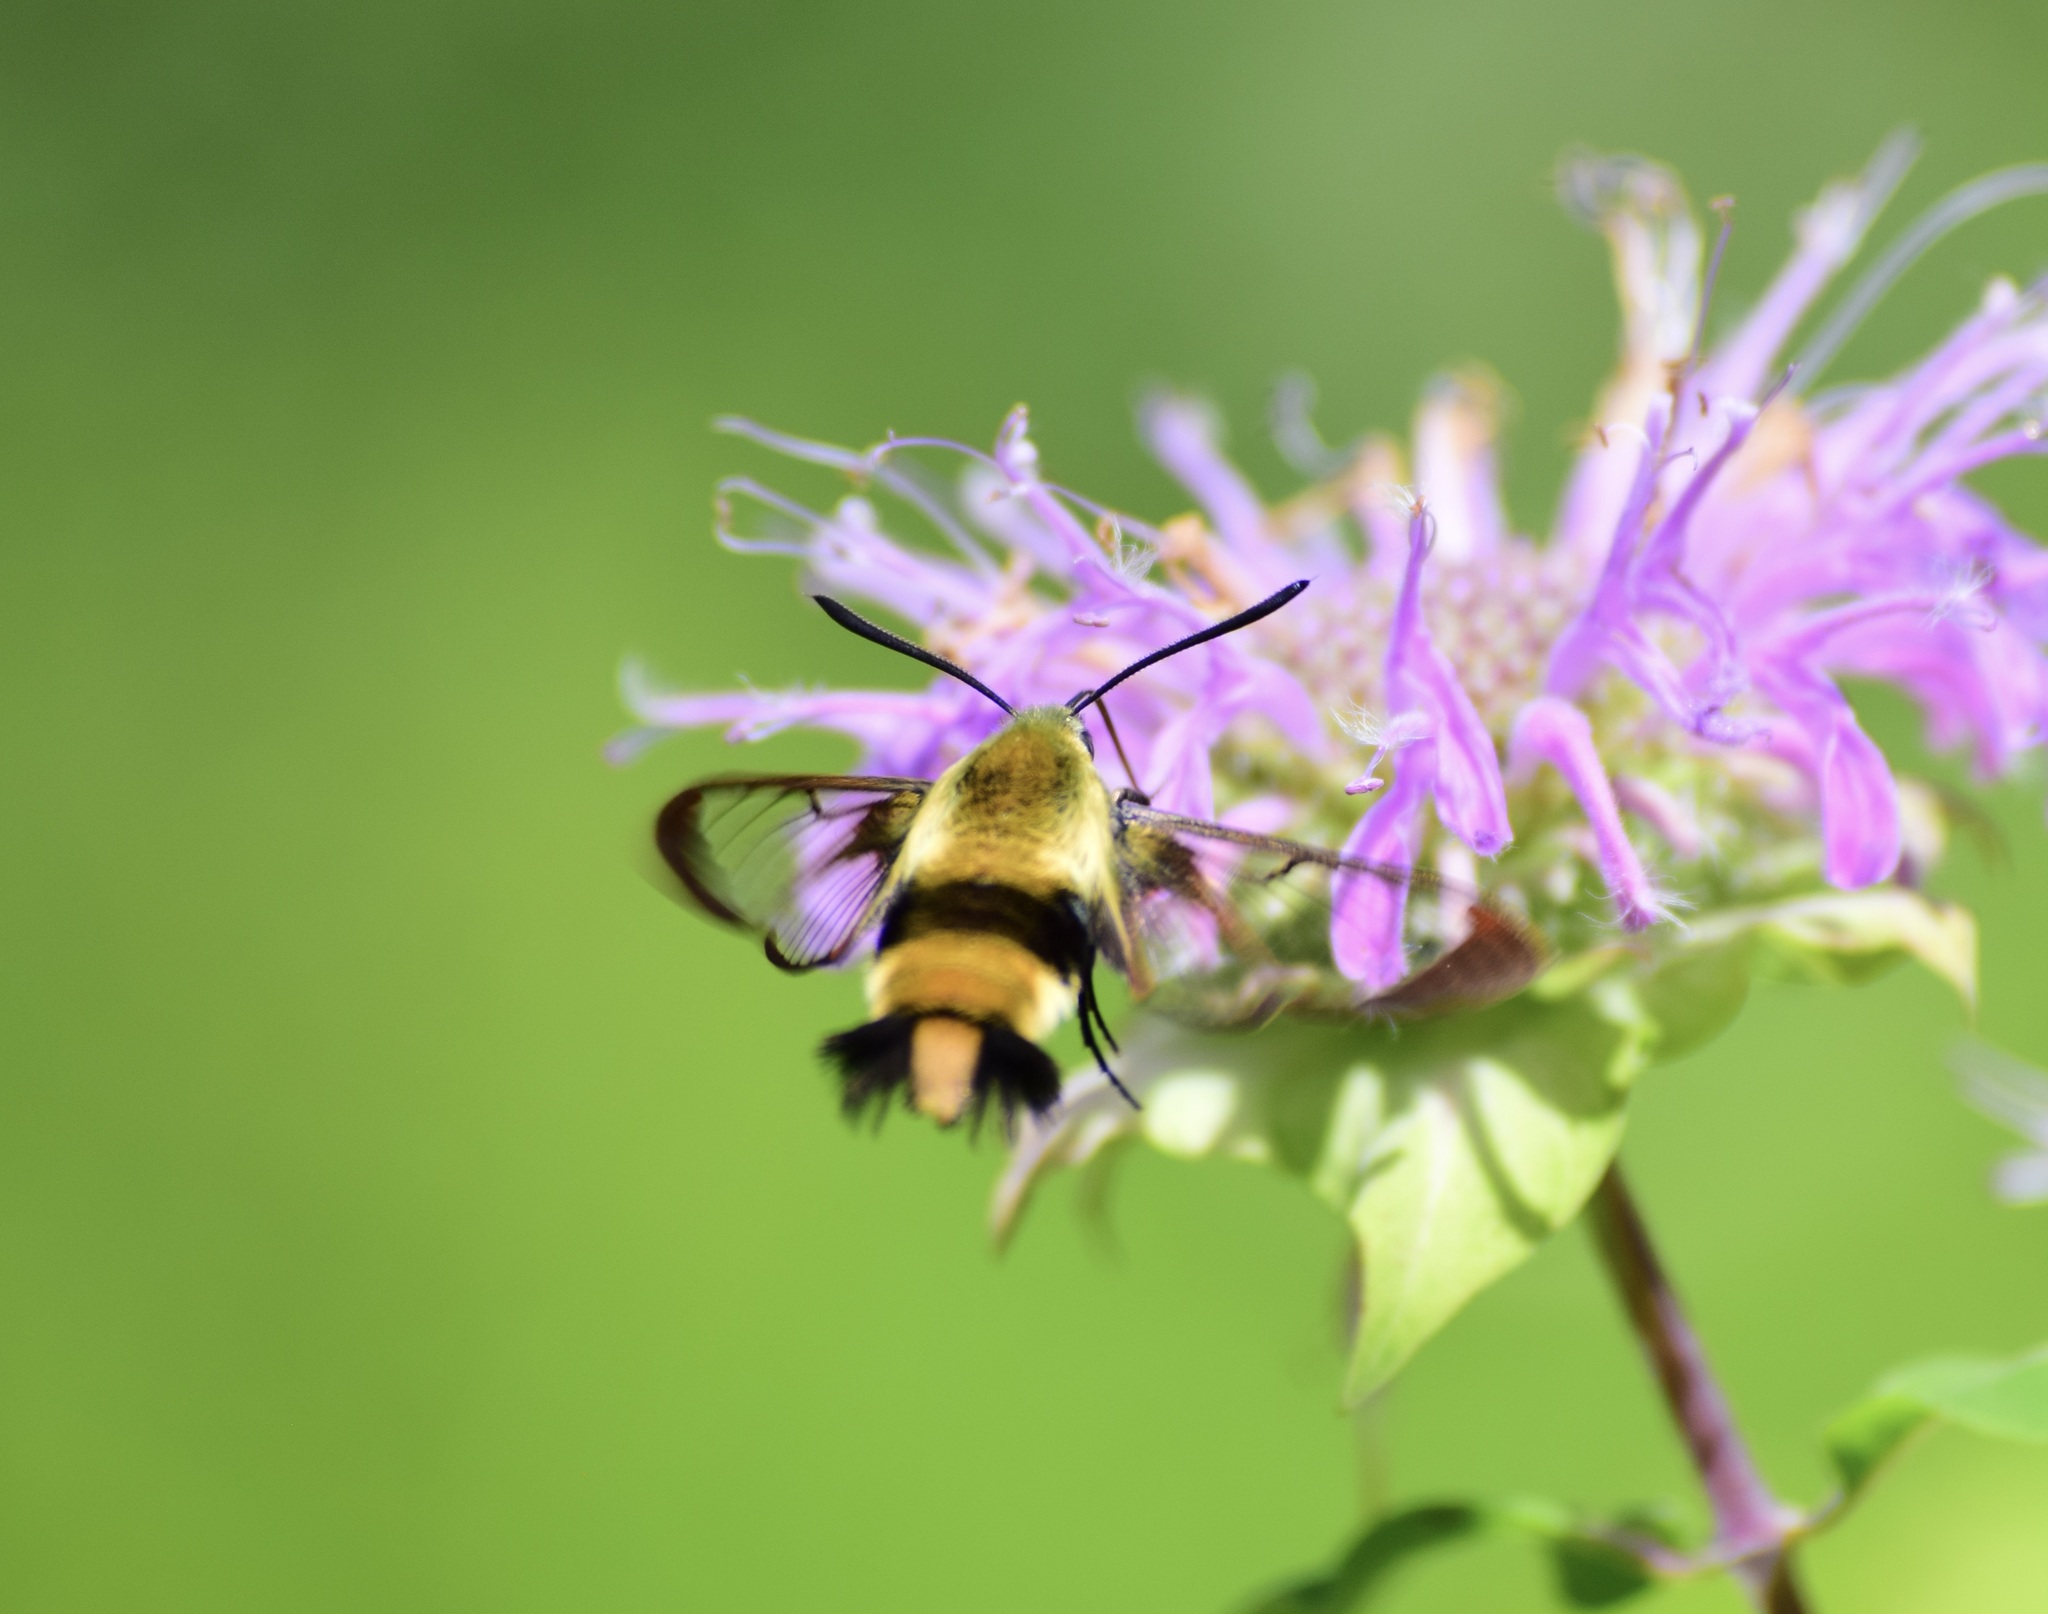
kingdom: Animalia
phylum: Arthropoda
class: Insecta
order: Lepidoptera
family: Sphingidae
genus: Hemaris
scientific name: Hemaris diffinis
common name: Bumblebee moth
